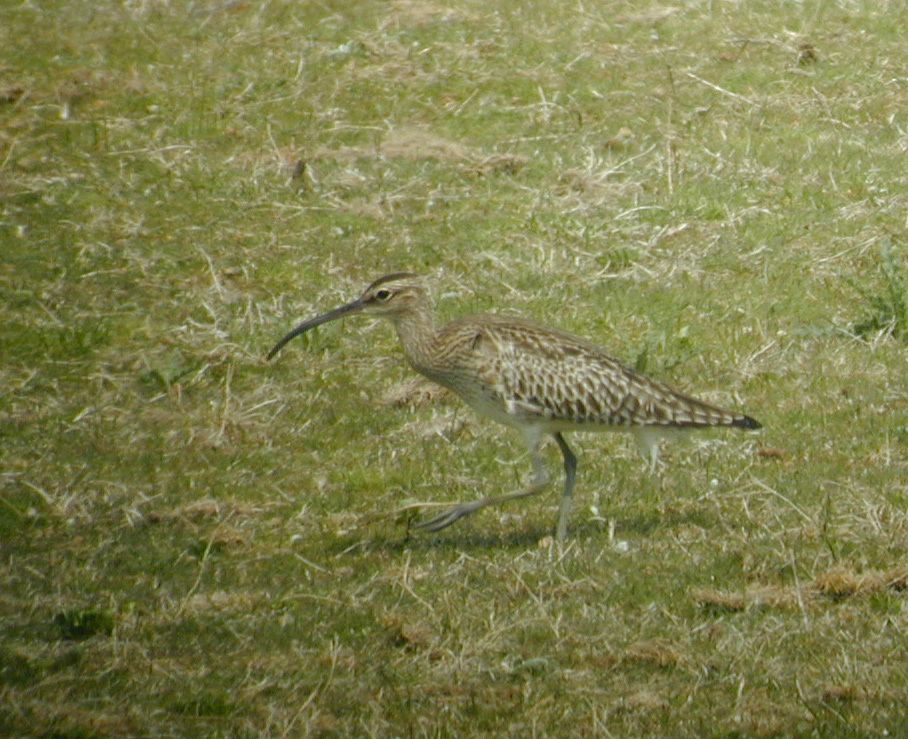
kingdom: Animalia
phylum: Chordata
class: Aves
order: Charadriiformes
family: Scolopacidae
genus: Numenius
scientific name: Numenius phaeopus
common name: Whimbrel
